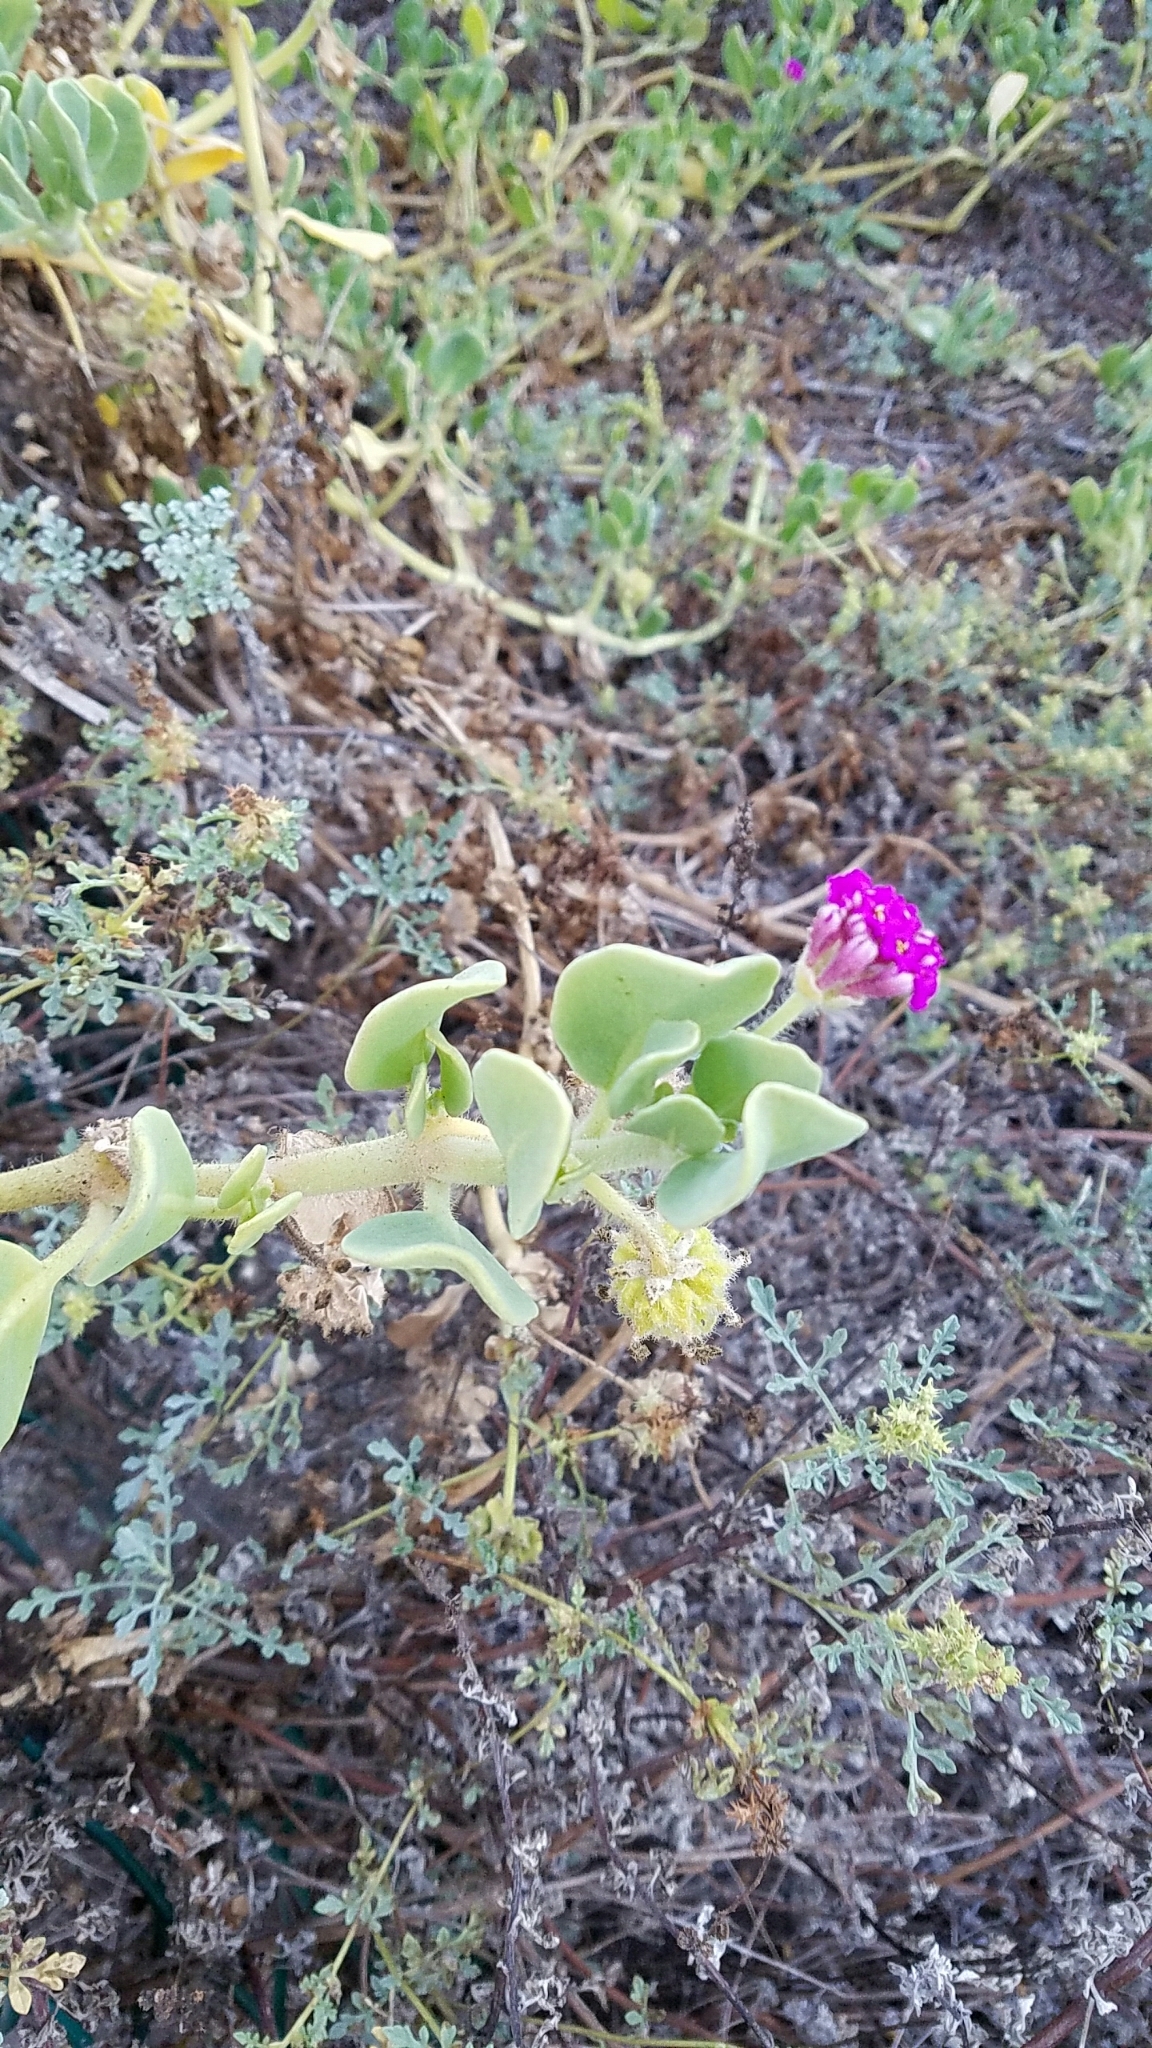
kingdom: Plantae
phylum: Tracheophyta
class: Magnoliopsida
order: Caryophyllales
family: Nyctaginaceae
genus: Abronia
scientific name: Abronia maritima
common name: Red sand-verbena
